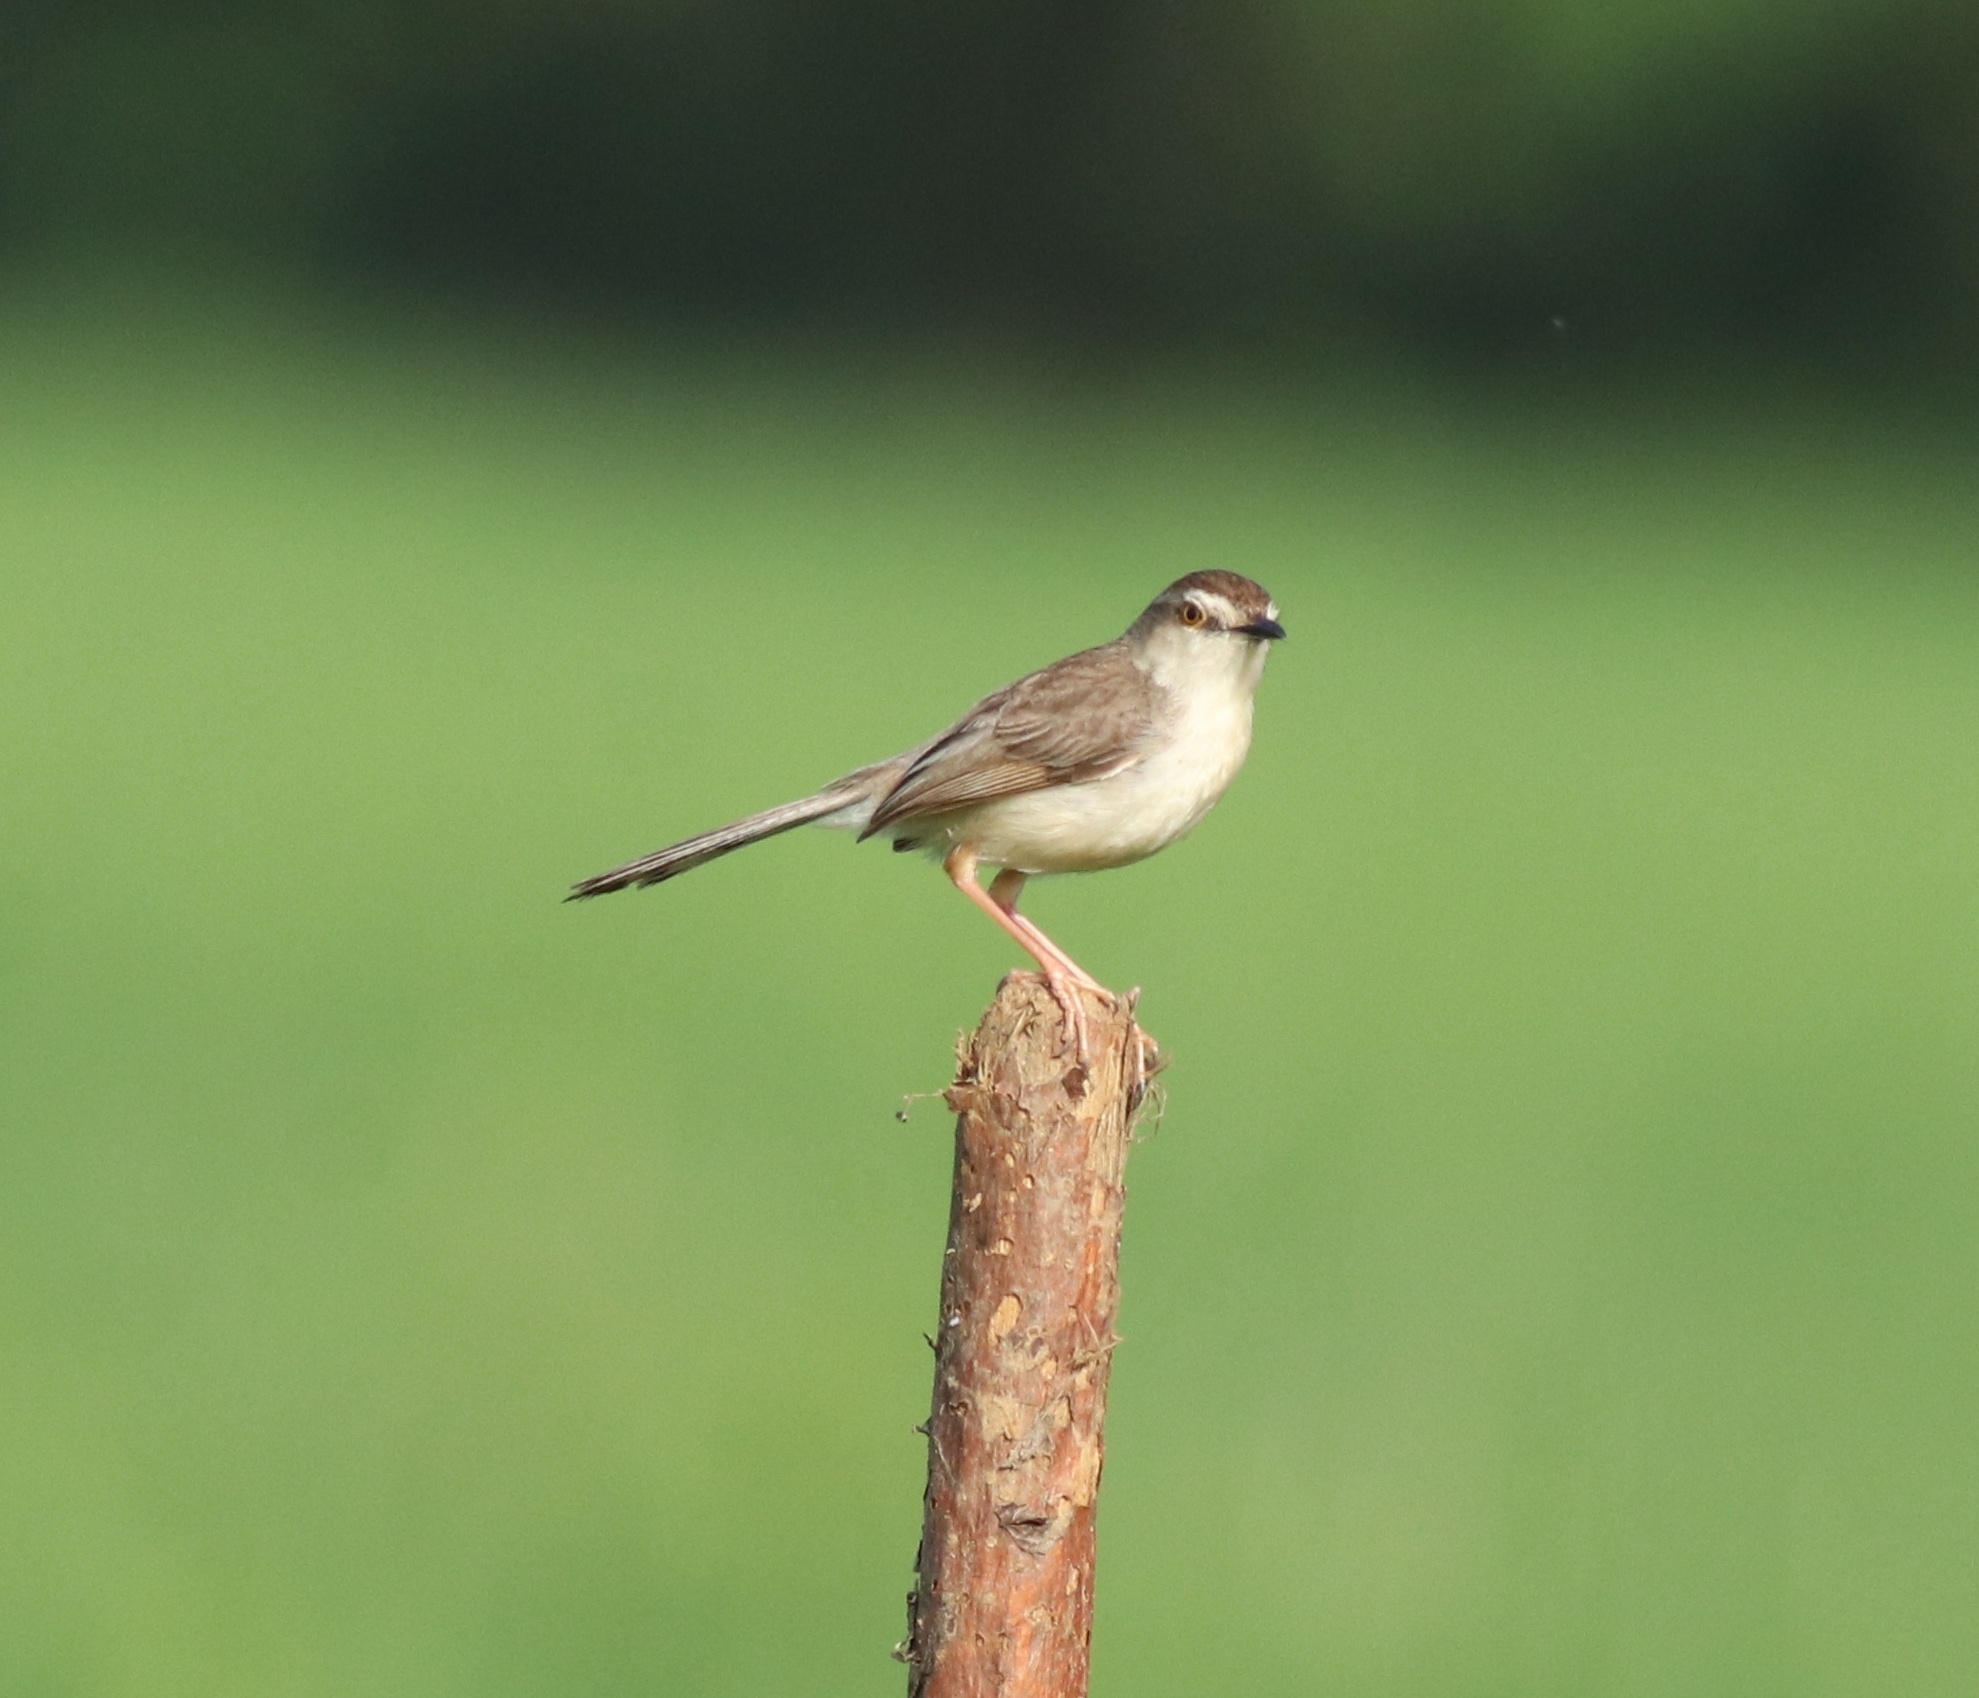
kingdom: Animalia
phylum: Chordata
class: Aves
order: Passeriformes
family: Cisticolidae
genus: Prinia
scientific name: Prinia inornata
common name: Plain prinia
